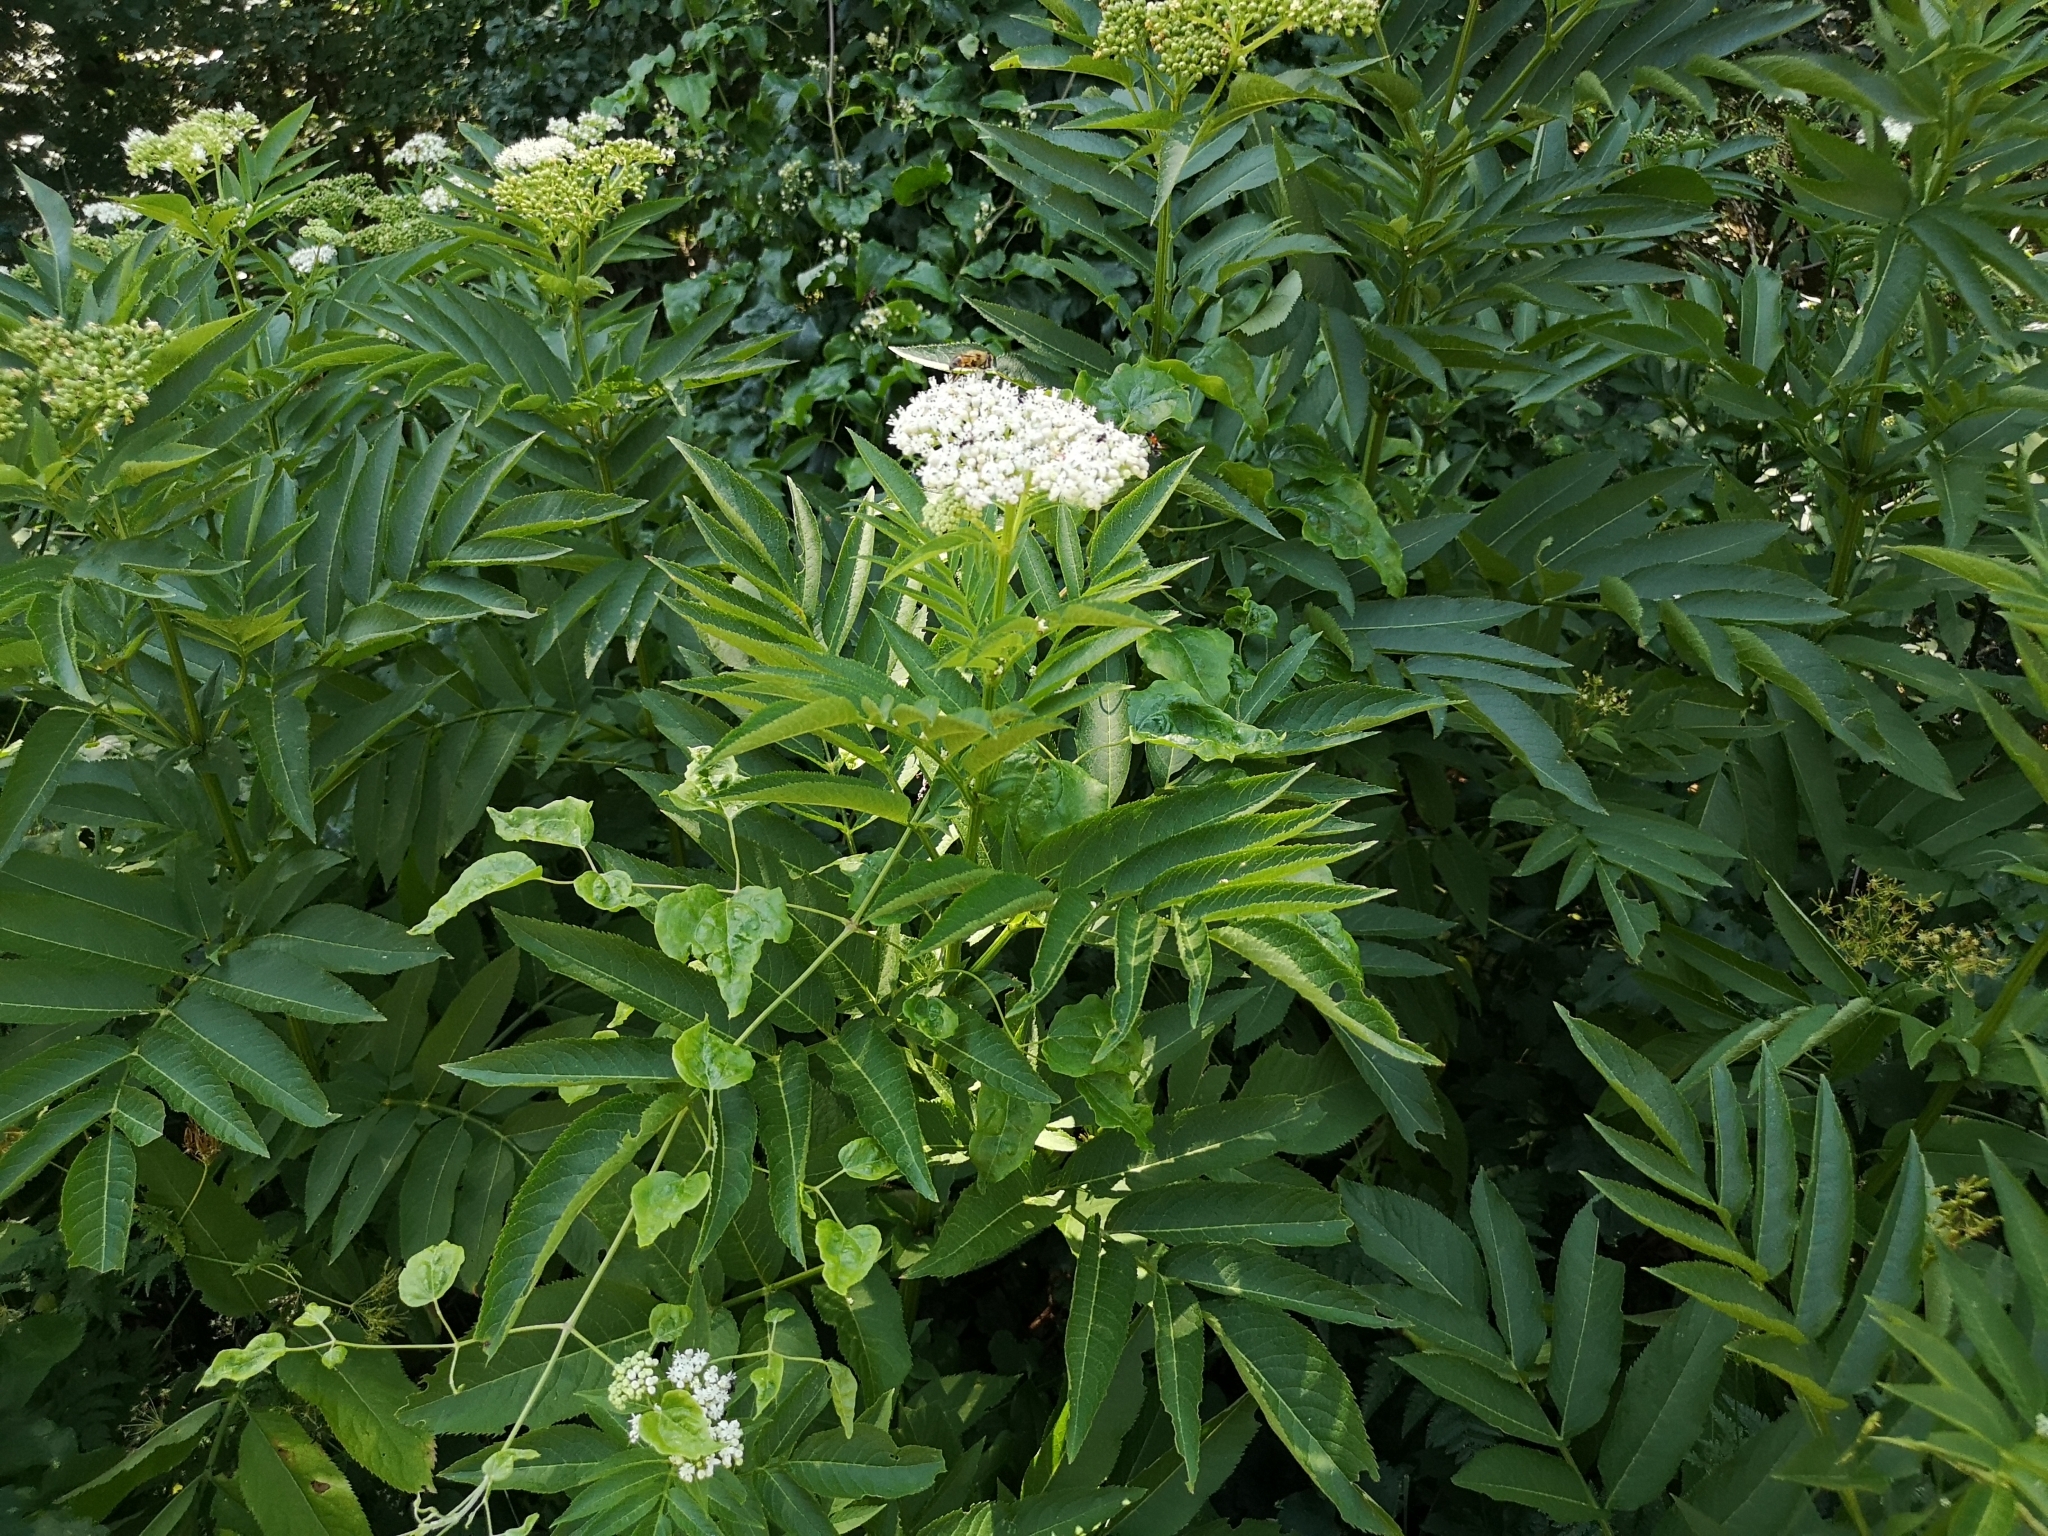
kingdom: Plantae
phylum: Tracheophyta
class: Magnoliopsida
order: Dipsacales
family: Viburnaceae
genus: Sambucus
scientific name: Sambucus ebulus
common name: Dwarf elder
